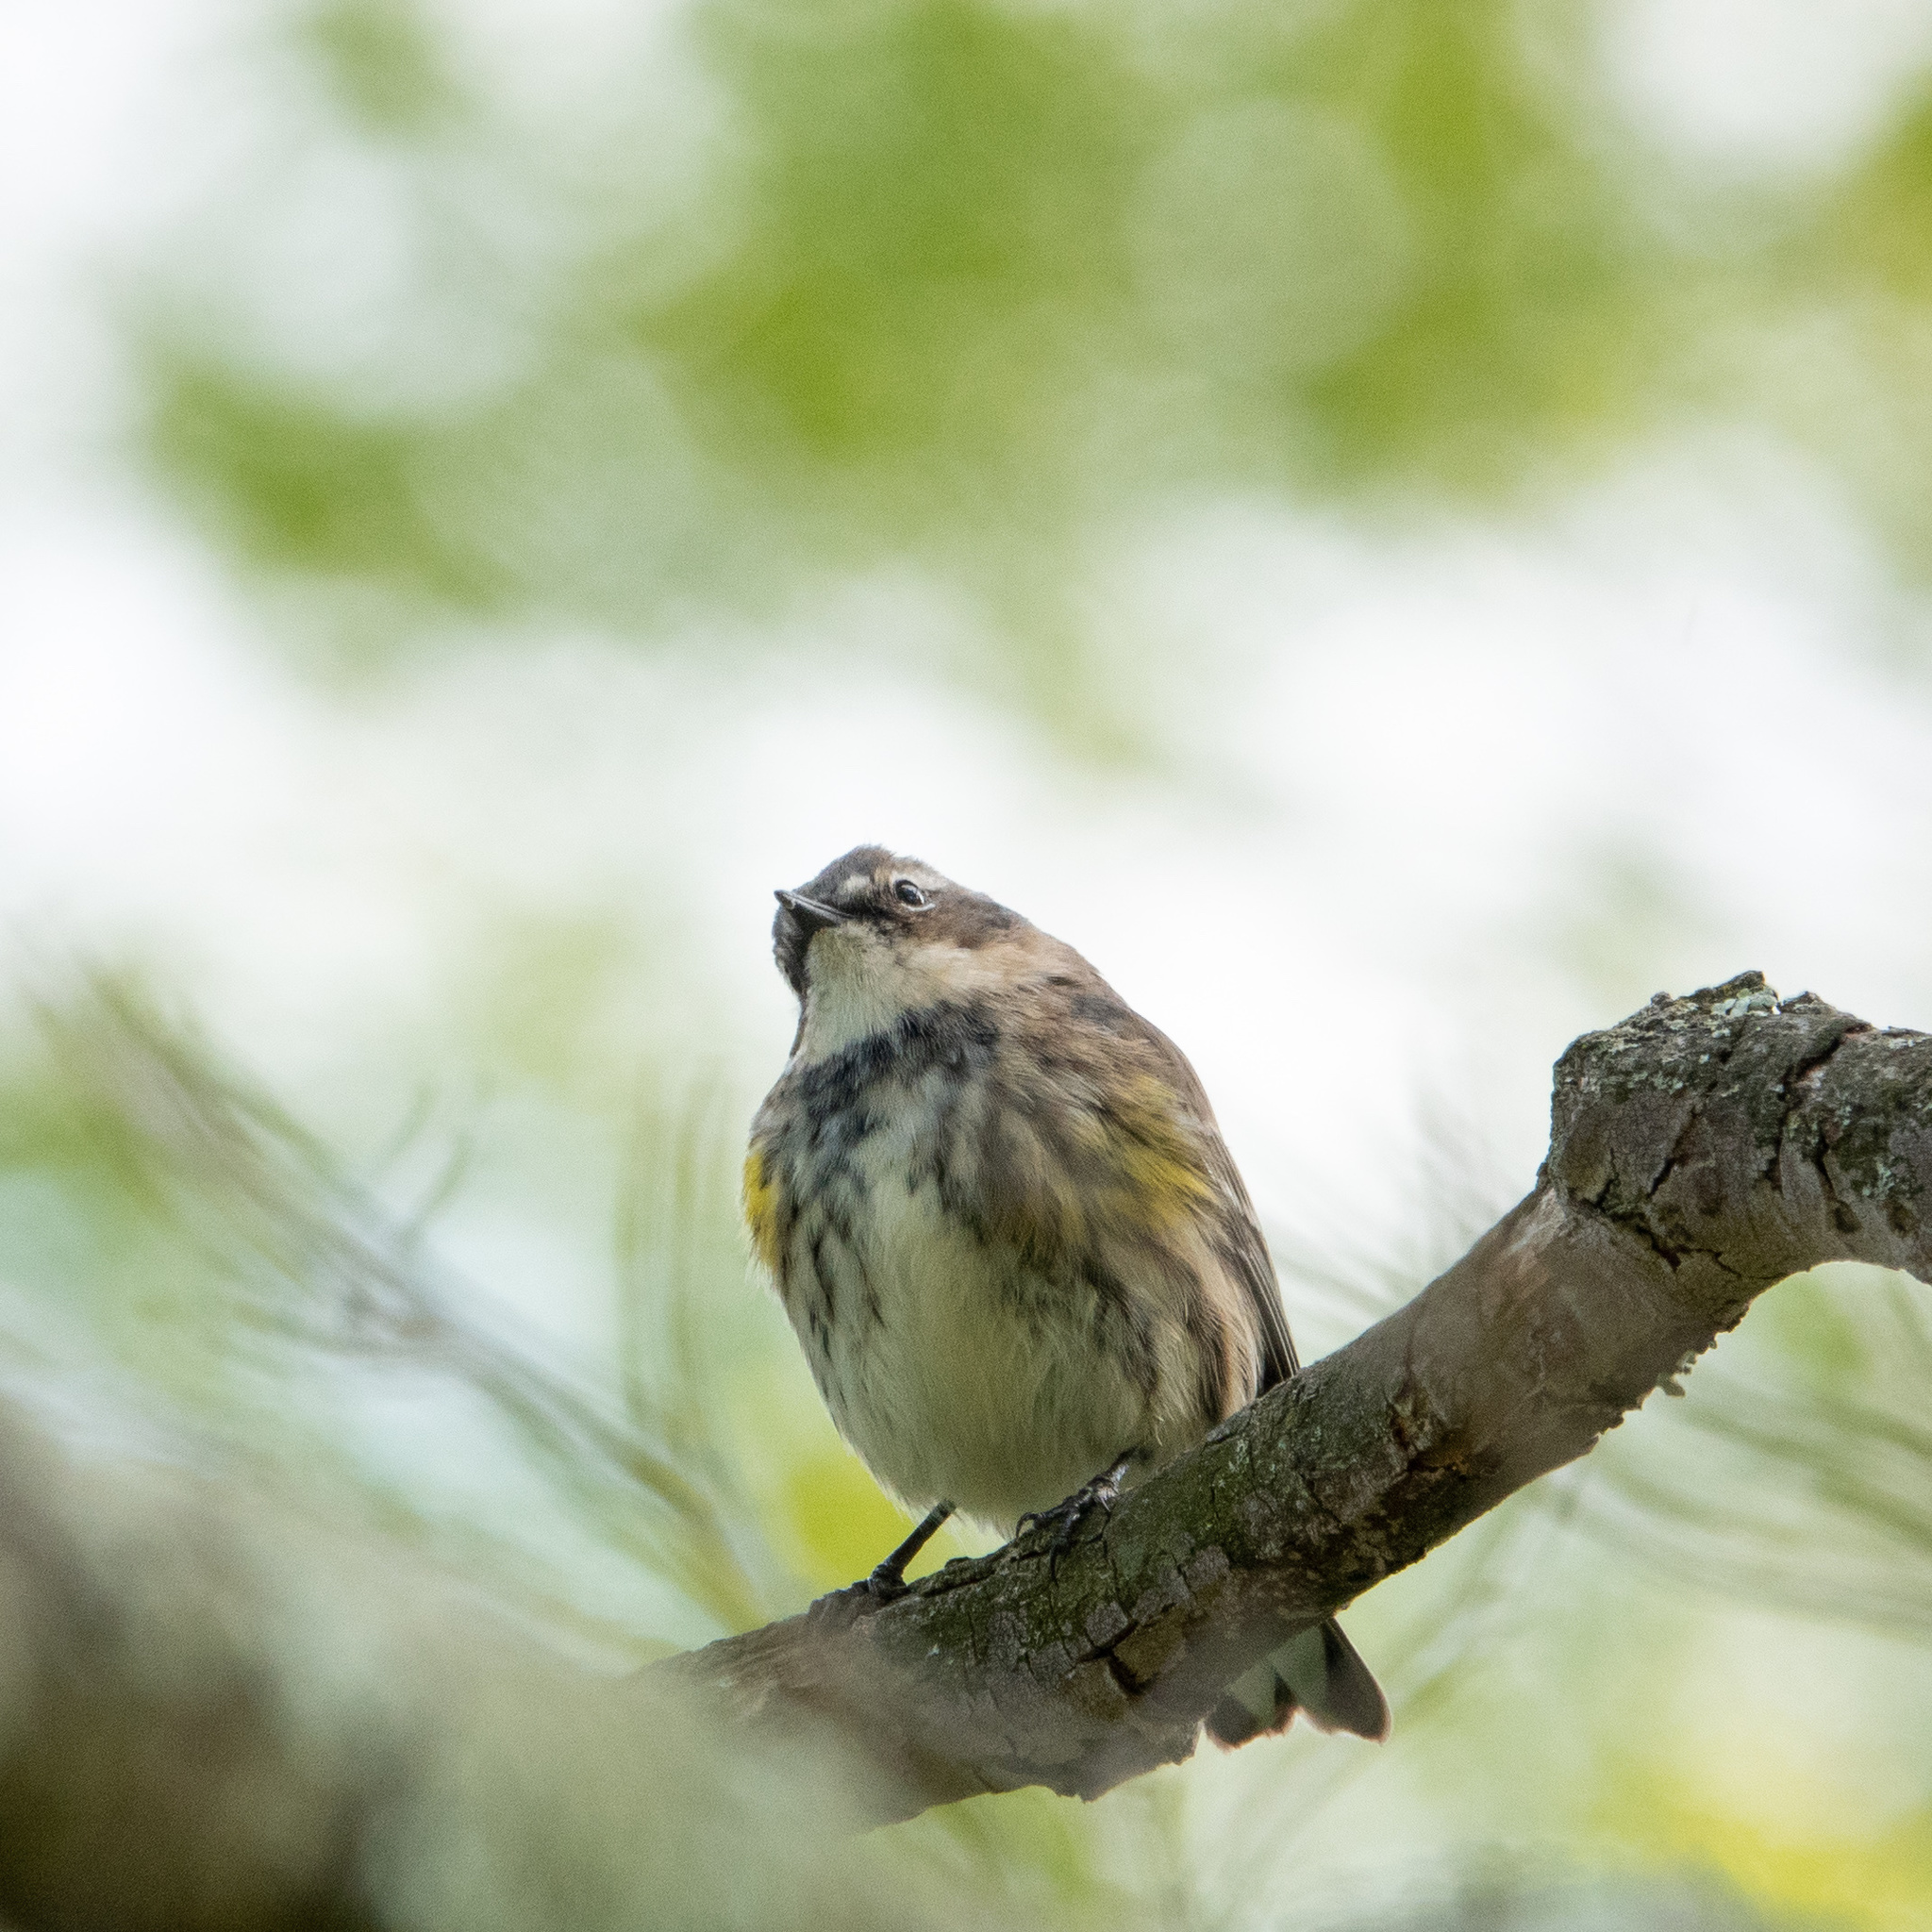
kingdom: Animalia
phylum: Chordata
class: Aves
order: Passeriformes
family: Parulidae
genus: Setophaga
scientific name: Setophaga coronata
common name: Myrtle warbler
